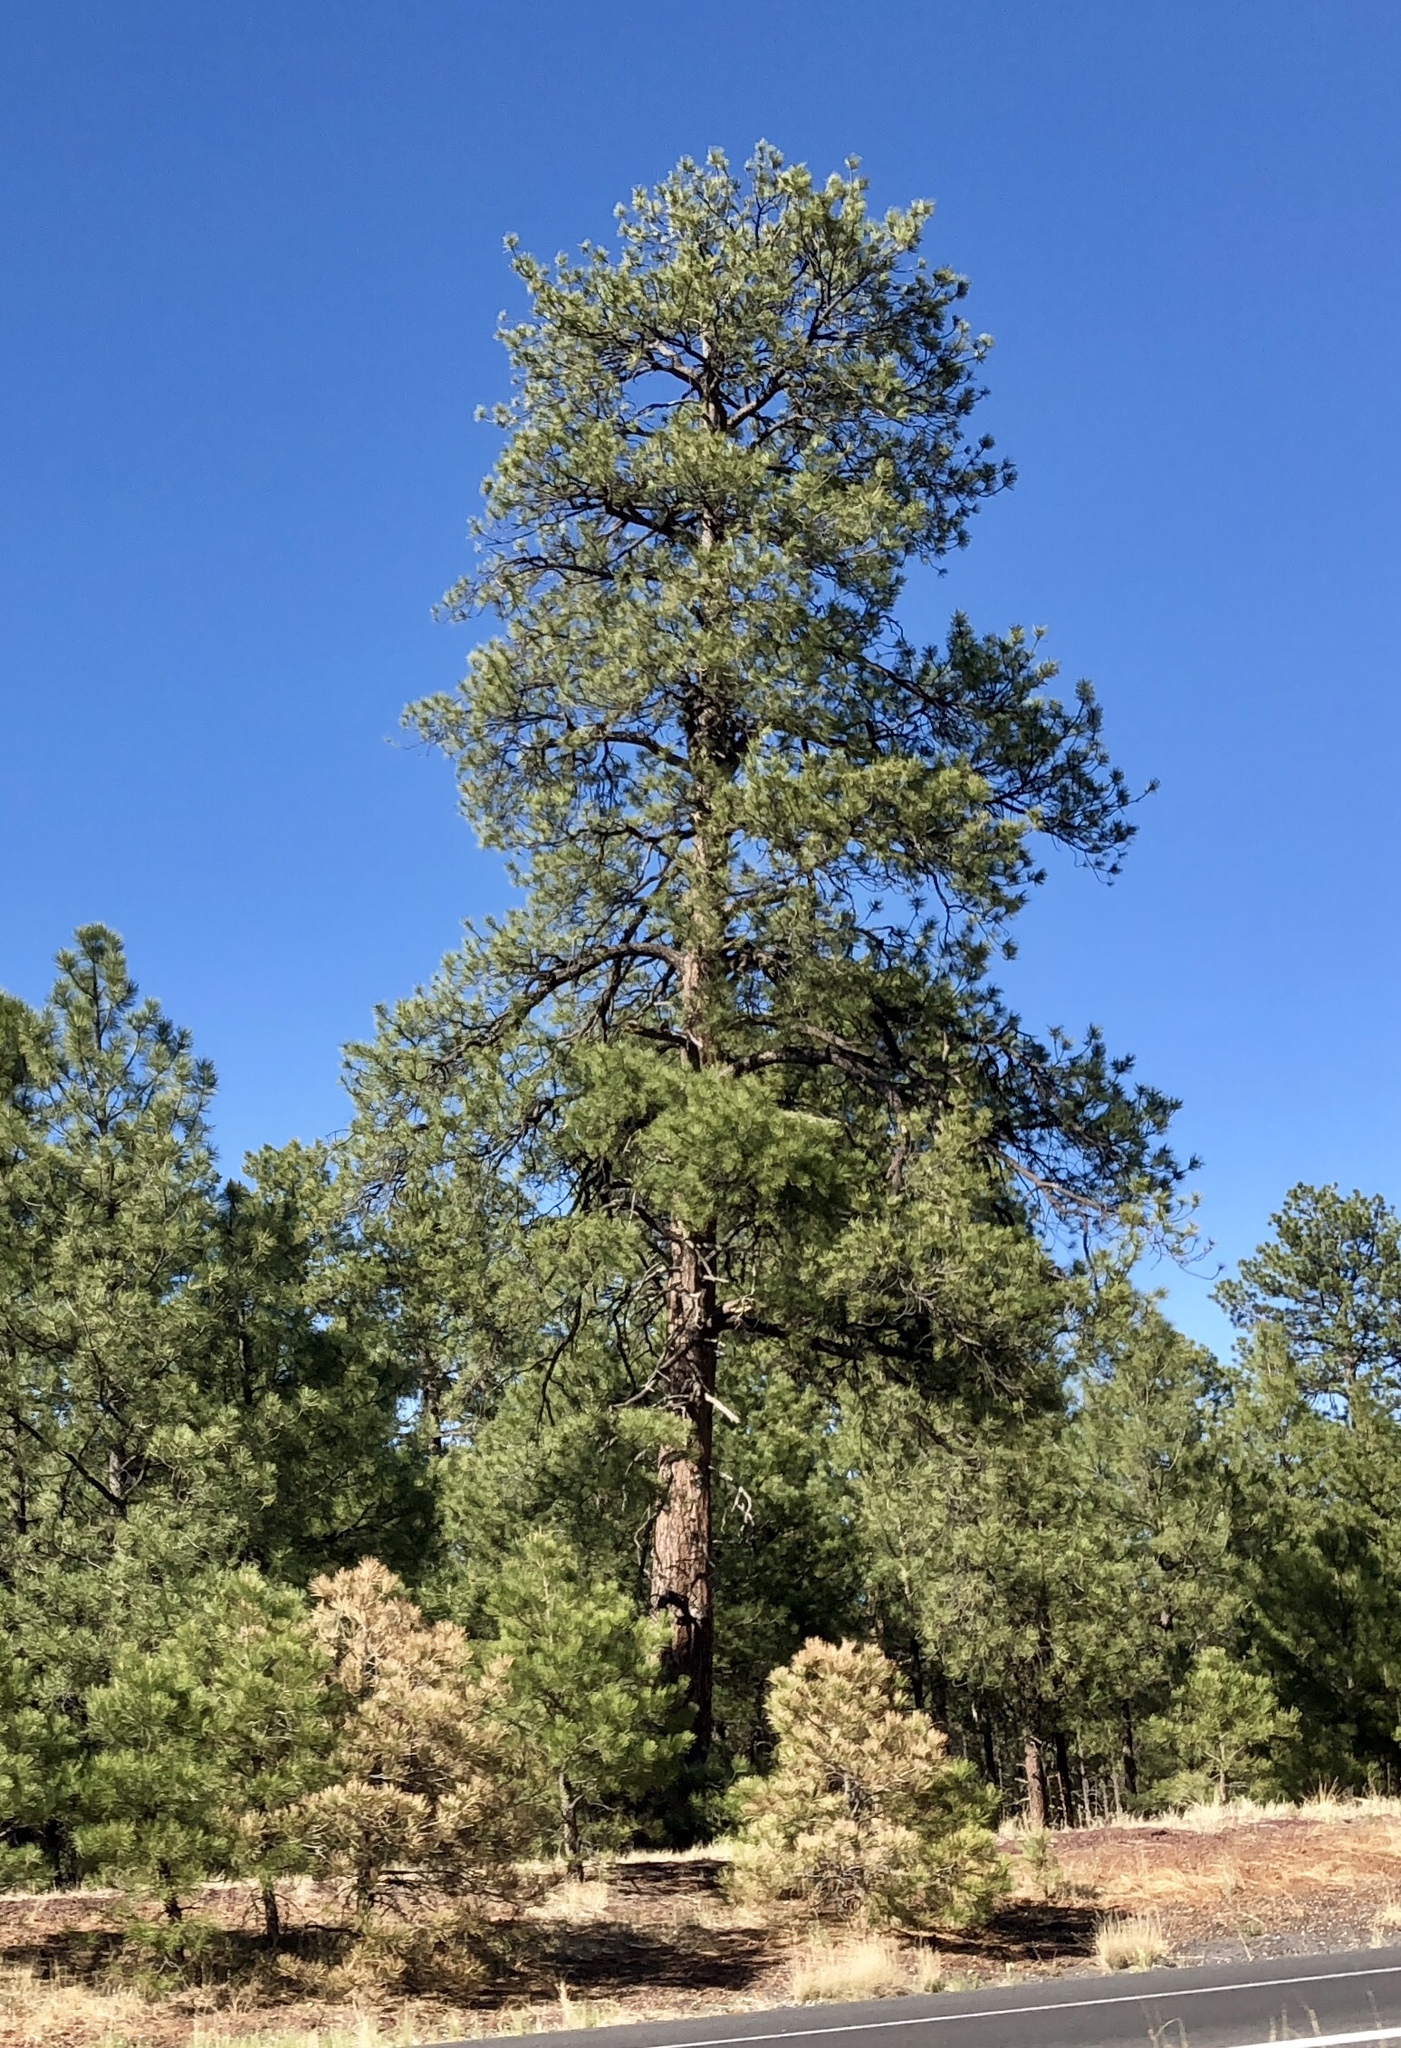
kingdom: Plantae
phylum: Tracheophyta
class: Pinopsida
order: Pinales
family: Pinaceae
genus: Pinus
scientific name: Pinus ponderosa
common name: Western yellow-pine
